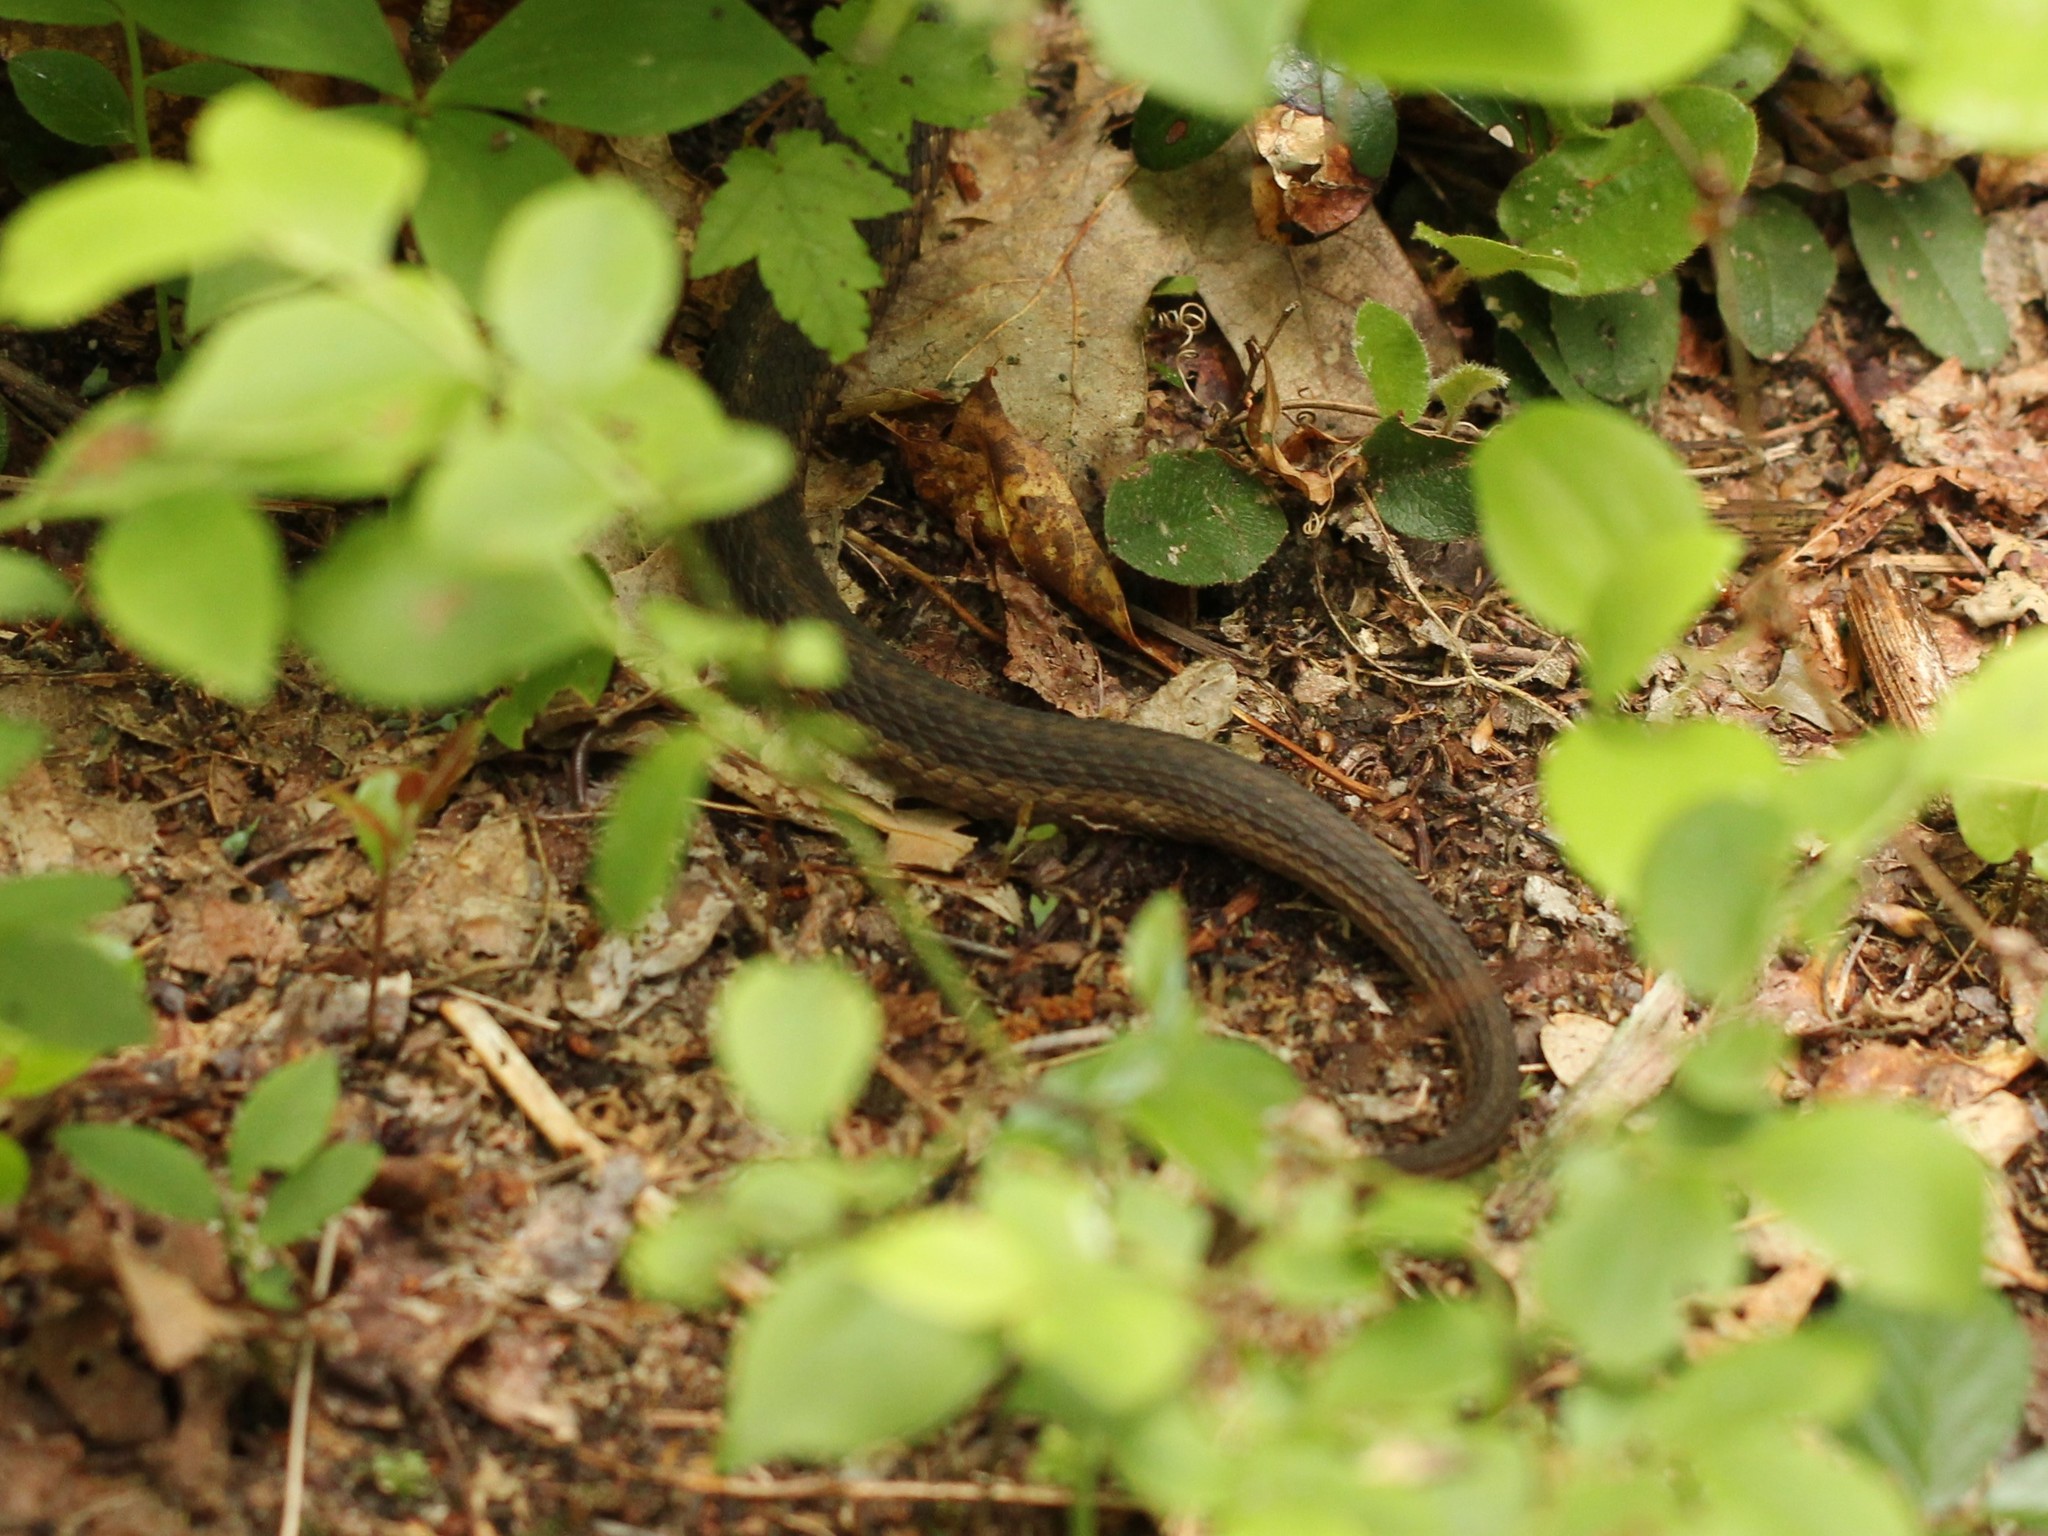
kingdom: Animalia
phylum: Chordata
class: Squamata
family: Colubridae
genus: Thamnophis
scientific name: Thamnophis sirtalis
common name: Common garter snake
